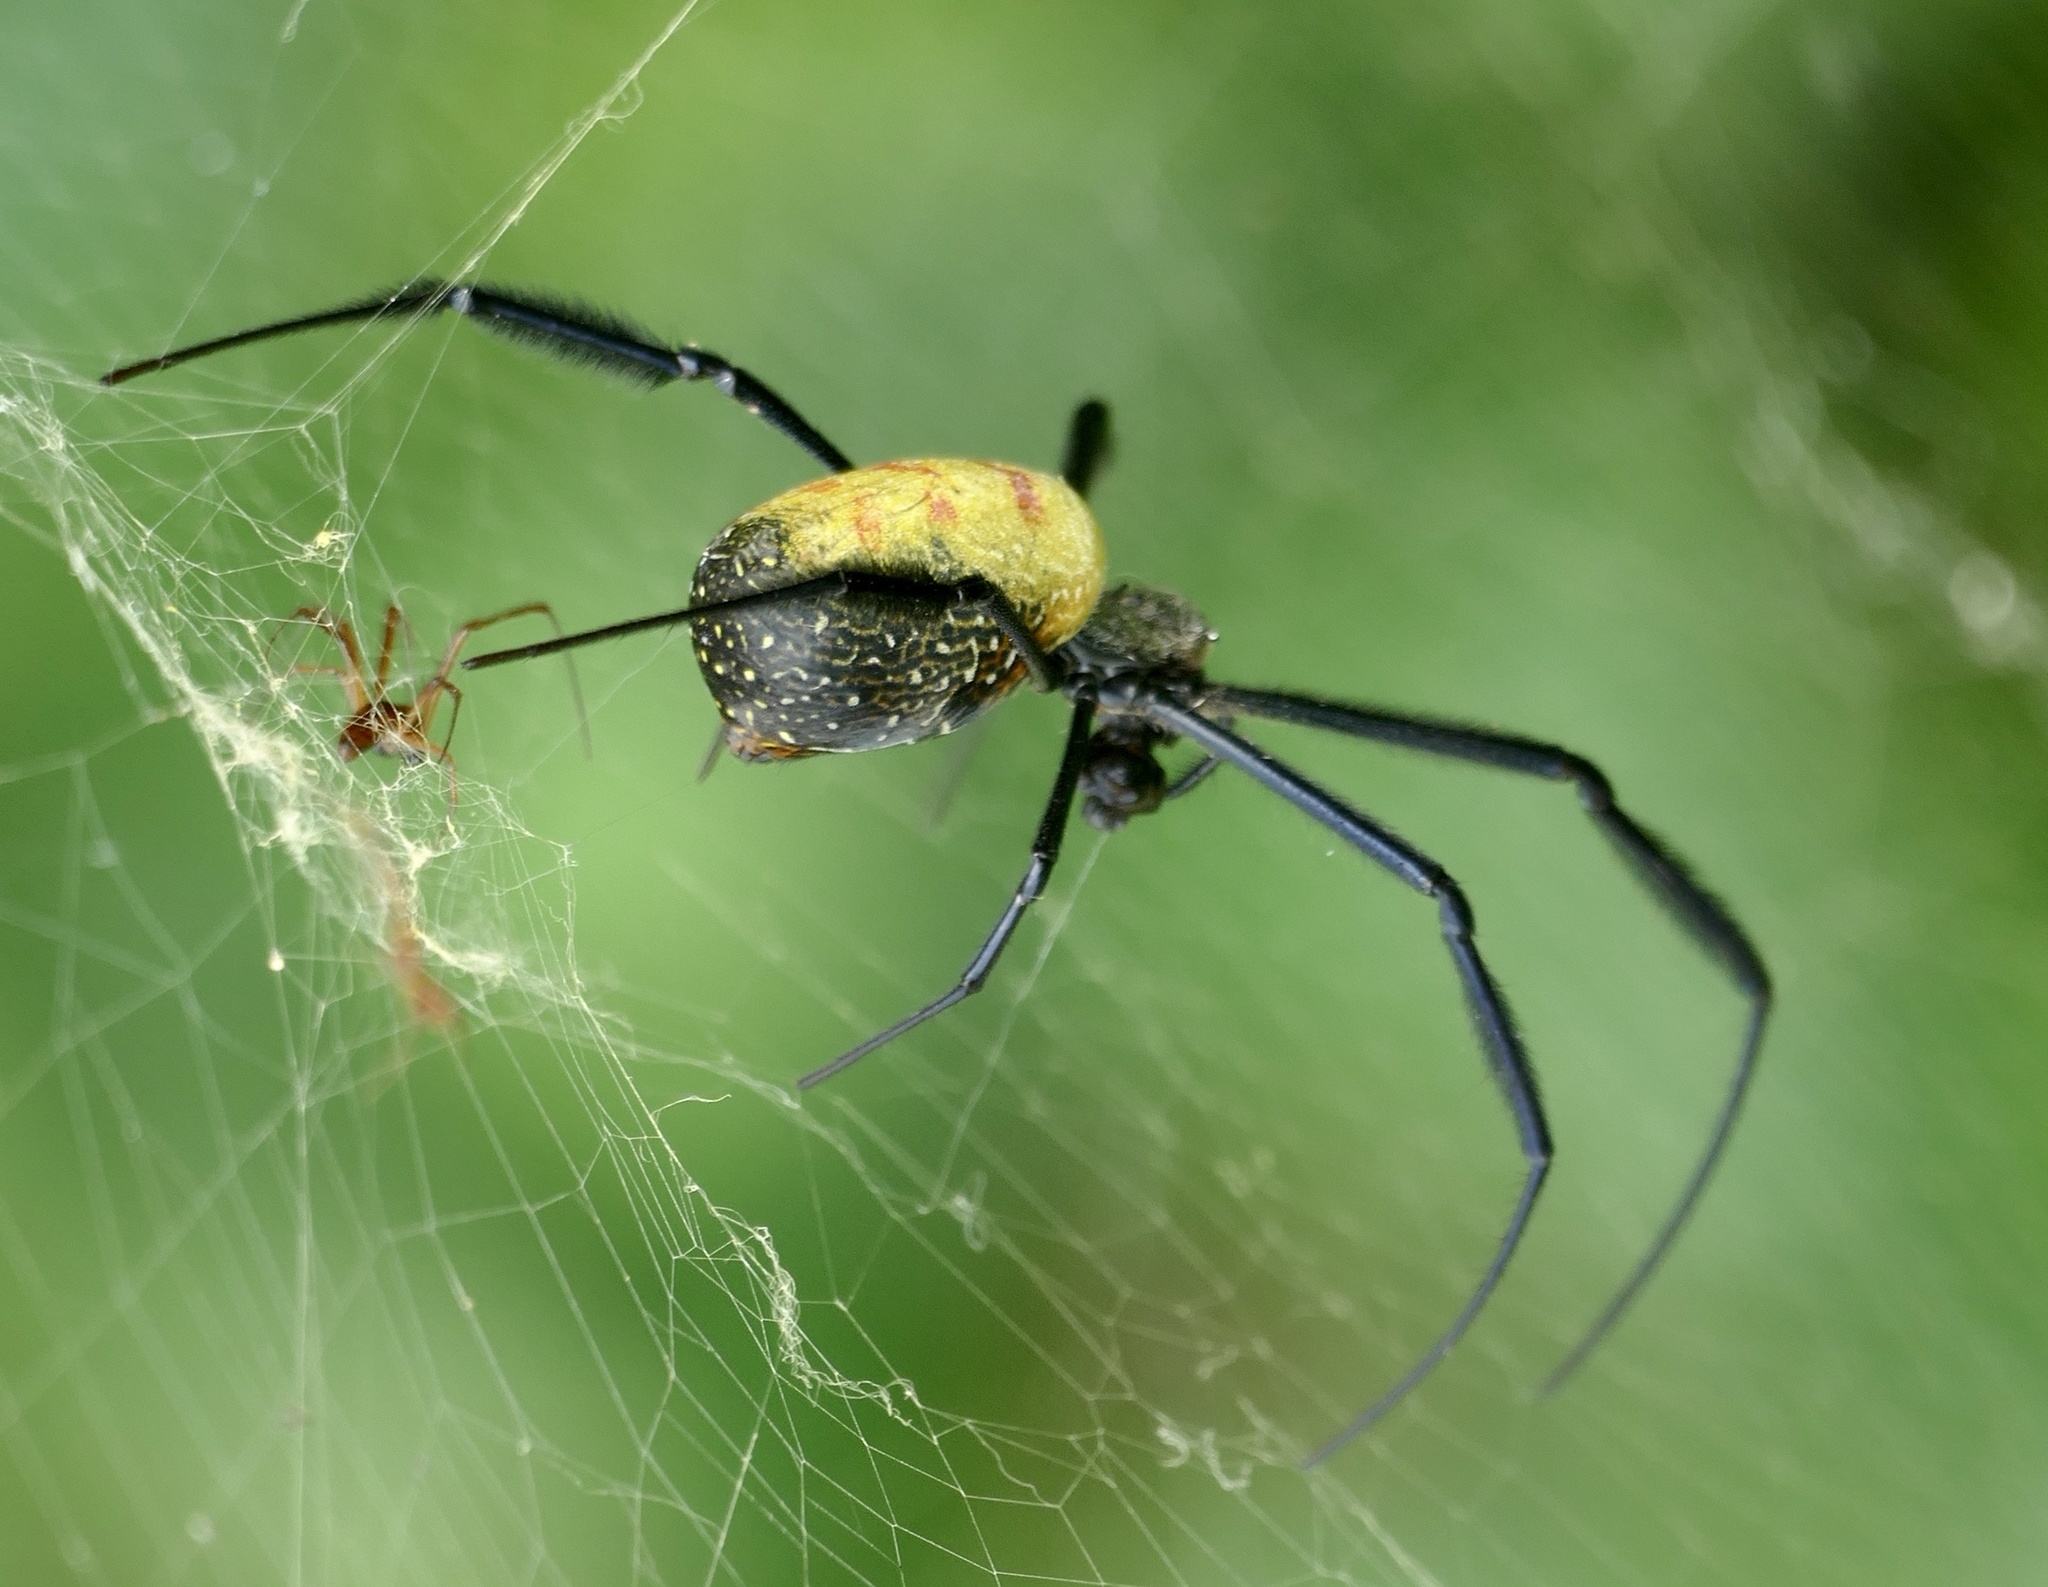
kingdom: Animalia
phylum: Arthropoda
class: Arachnida
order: Araneae
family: Araneidae
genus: Trichonephila
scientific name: Trichonephila fenestrata
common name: Hairy golden orb weaver
